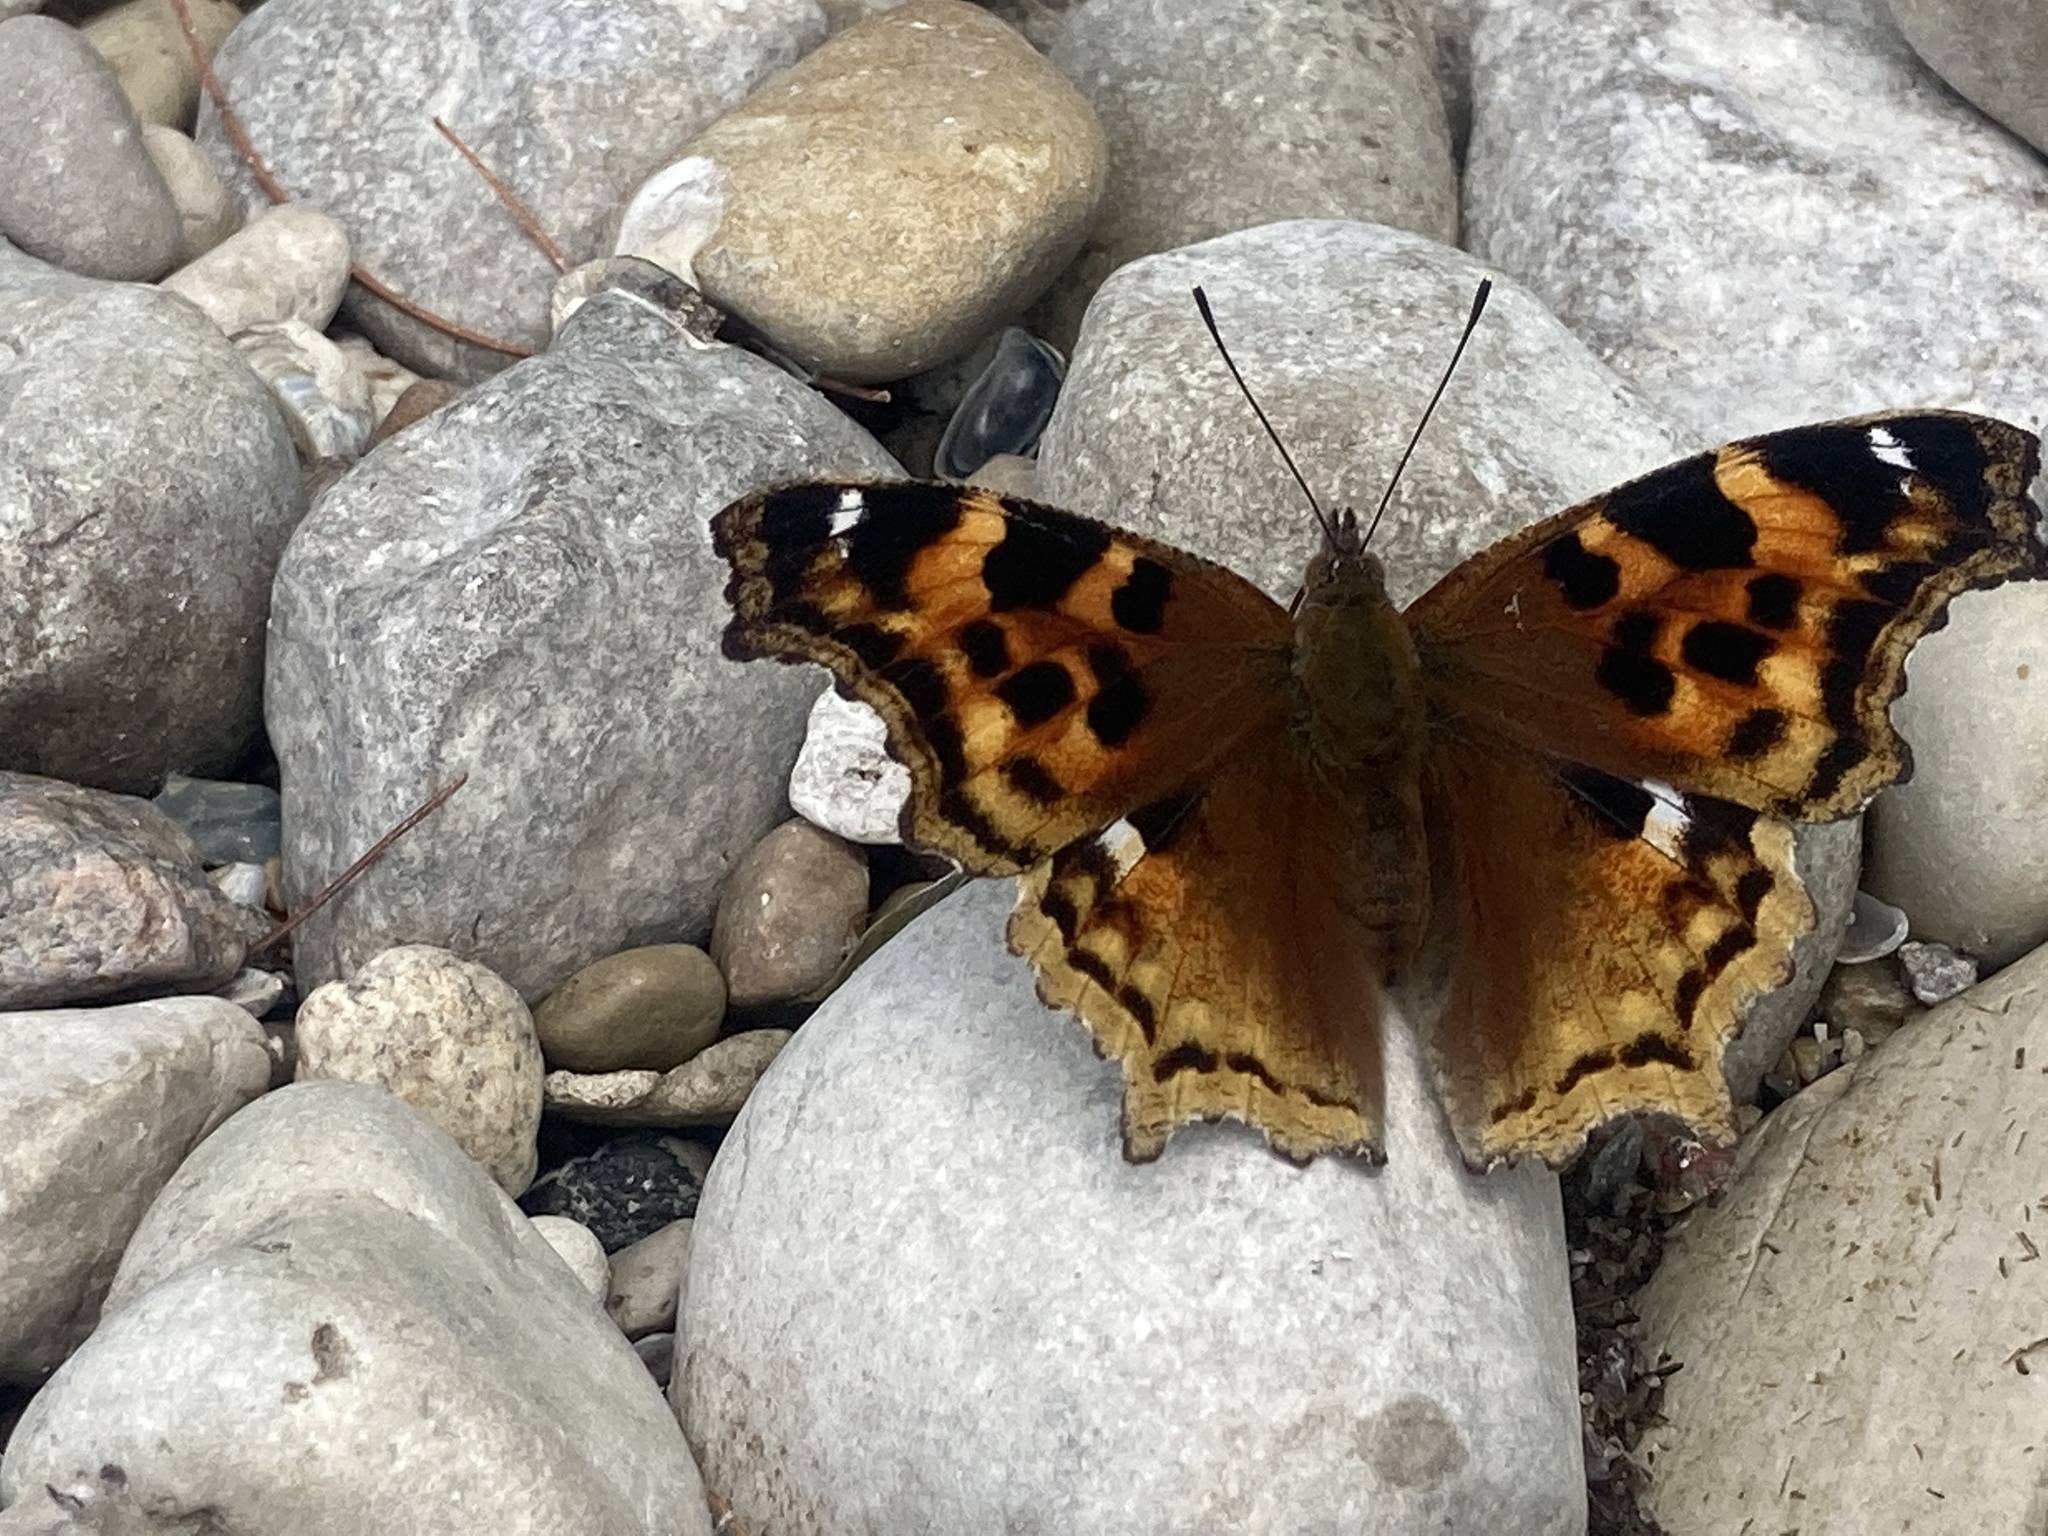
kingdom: Animalia
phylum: Arthropoda
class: Insecta
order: Lepidoptera
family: Nymphalidae
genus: Polygonia
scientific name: Polygonia vaualbum
